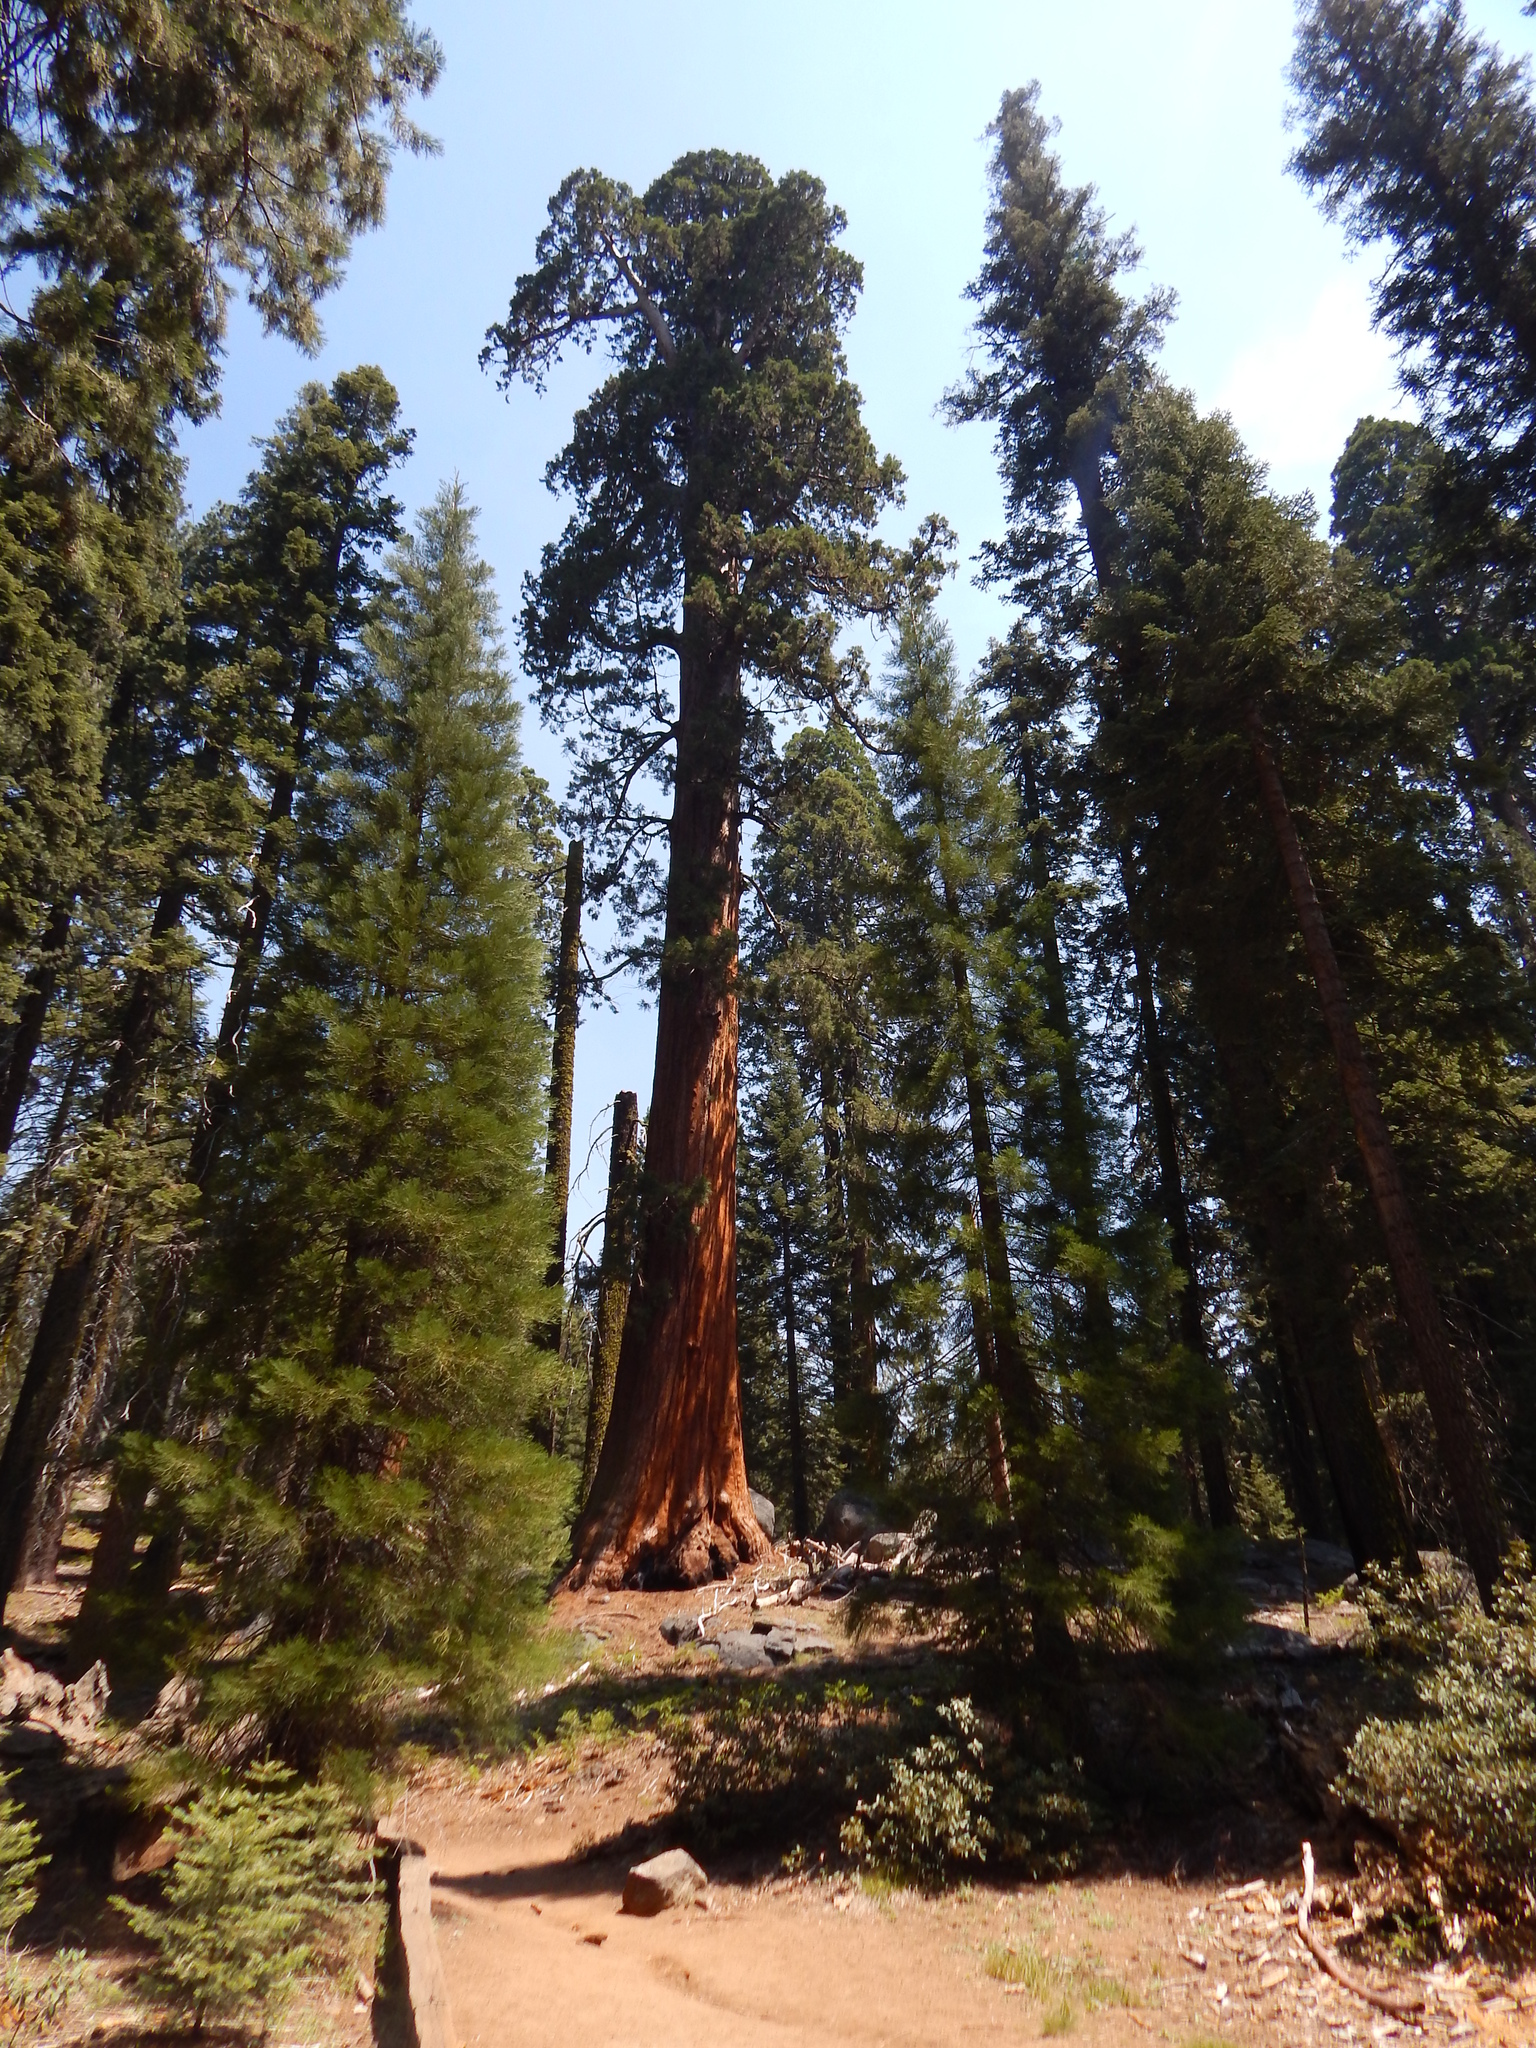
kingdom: Plantae
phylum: Tracheophyta
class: Pinopsida
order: Pinales
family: Cupressaceae
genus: Sequoiadendron
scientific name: Sequoiadendron giganteum
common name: Wellingtonia
